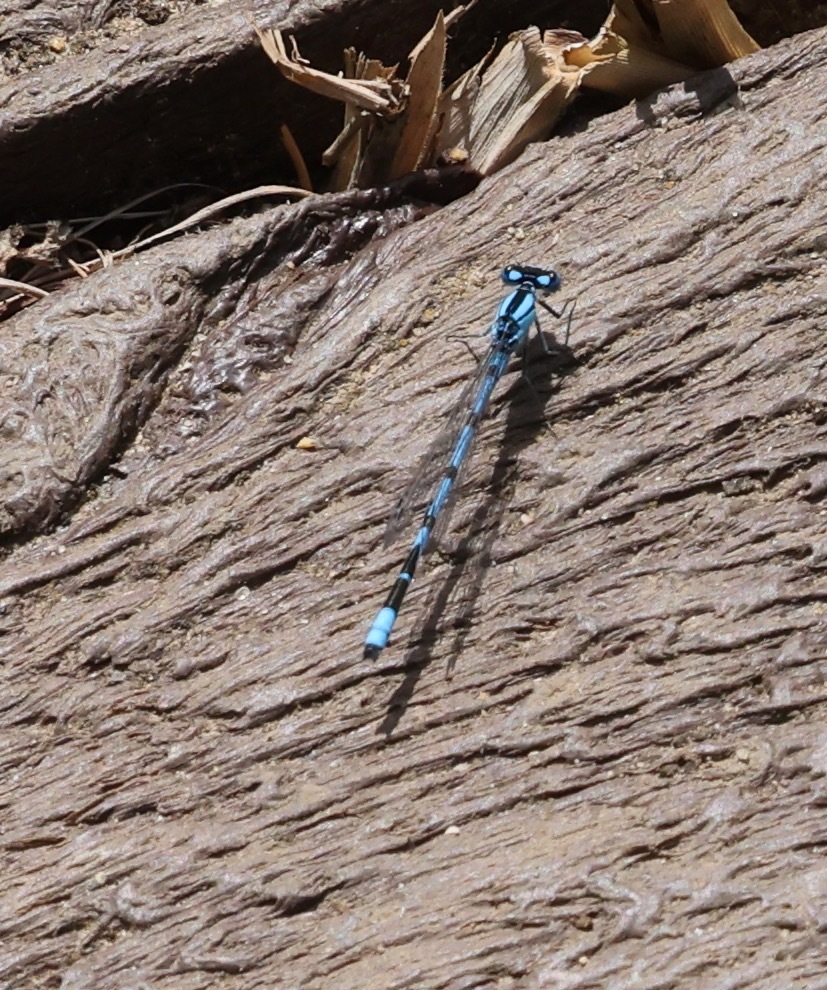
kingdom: Animalia
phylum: Arthropoda
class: Insecta
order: Odonata
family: Coenagrionidae
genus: Enallagma
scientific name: Enallagma cyathigerum
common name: Common blue damselfly
